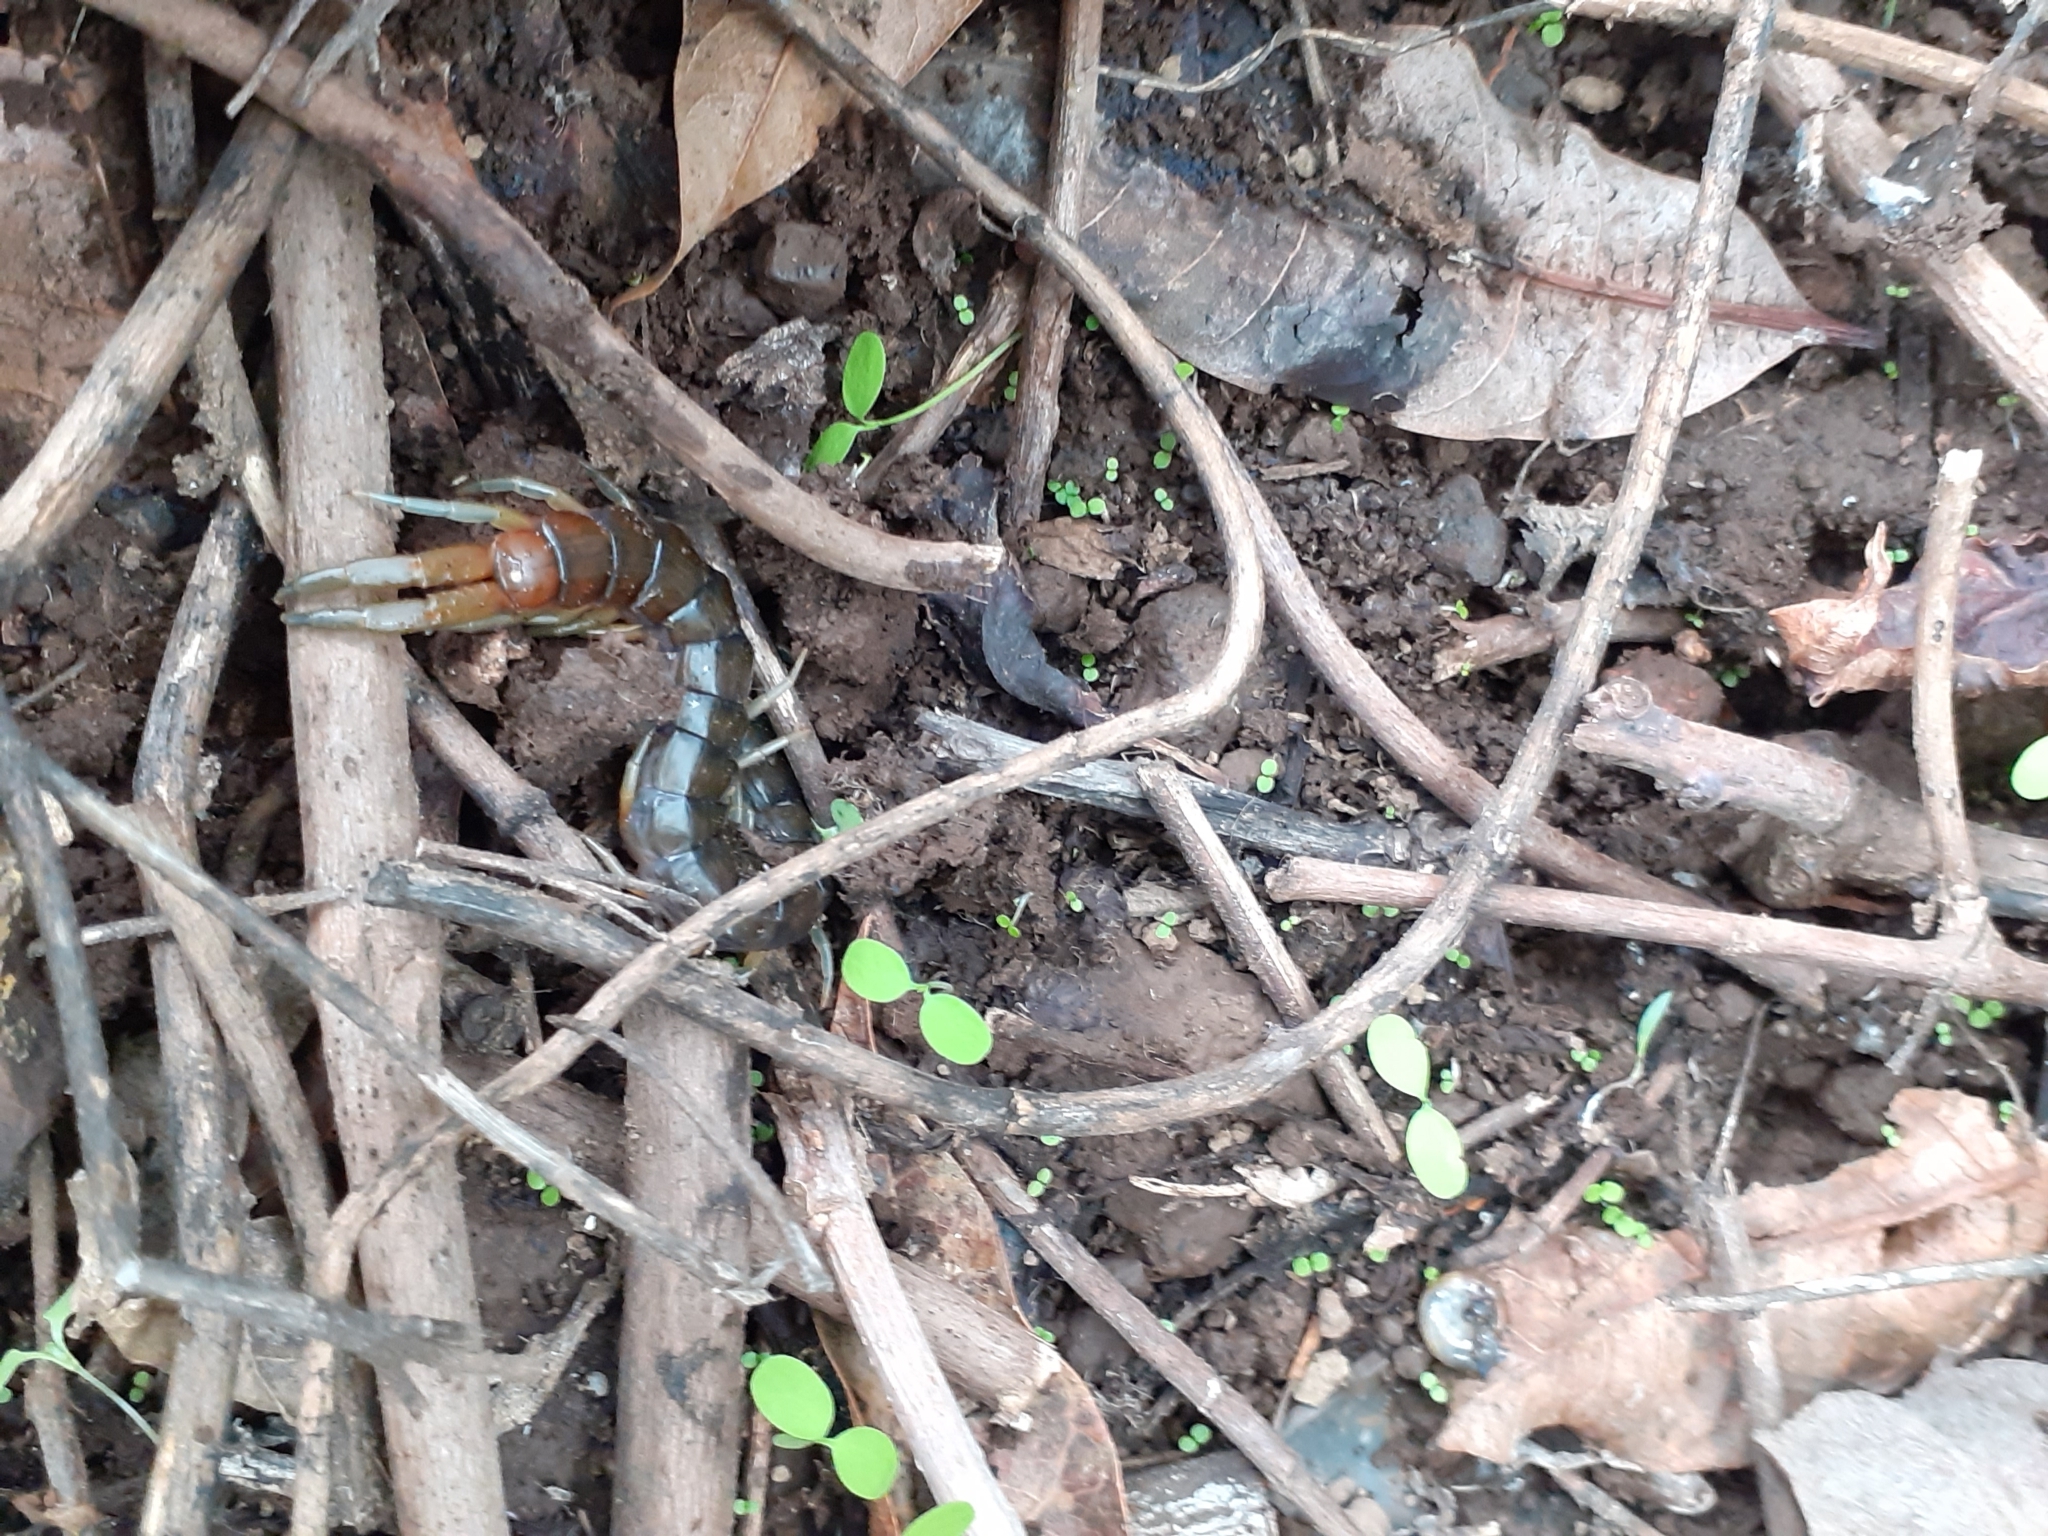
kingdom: Animalia
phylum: Arthropoda
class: Chilopoda
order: Scolopendromorpha
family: Scolopendridae
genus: Scolopendra
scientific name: Scolopendra valida
